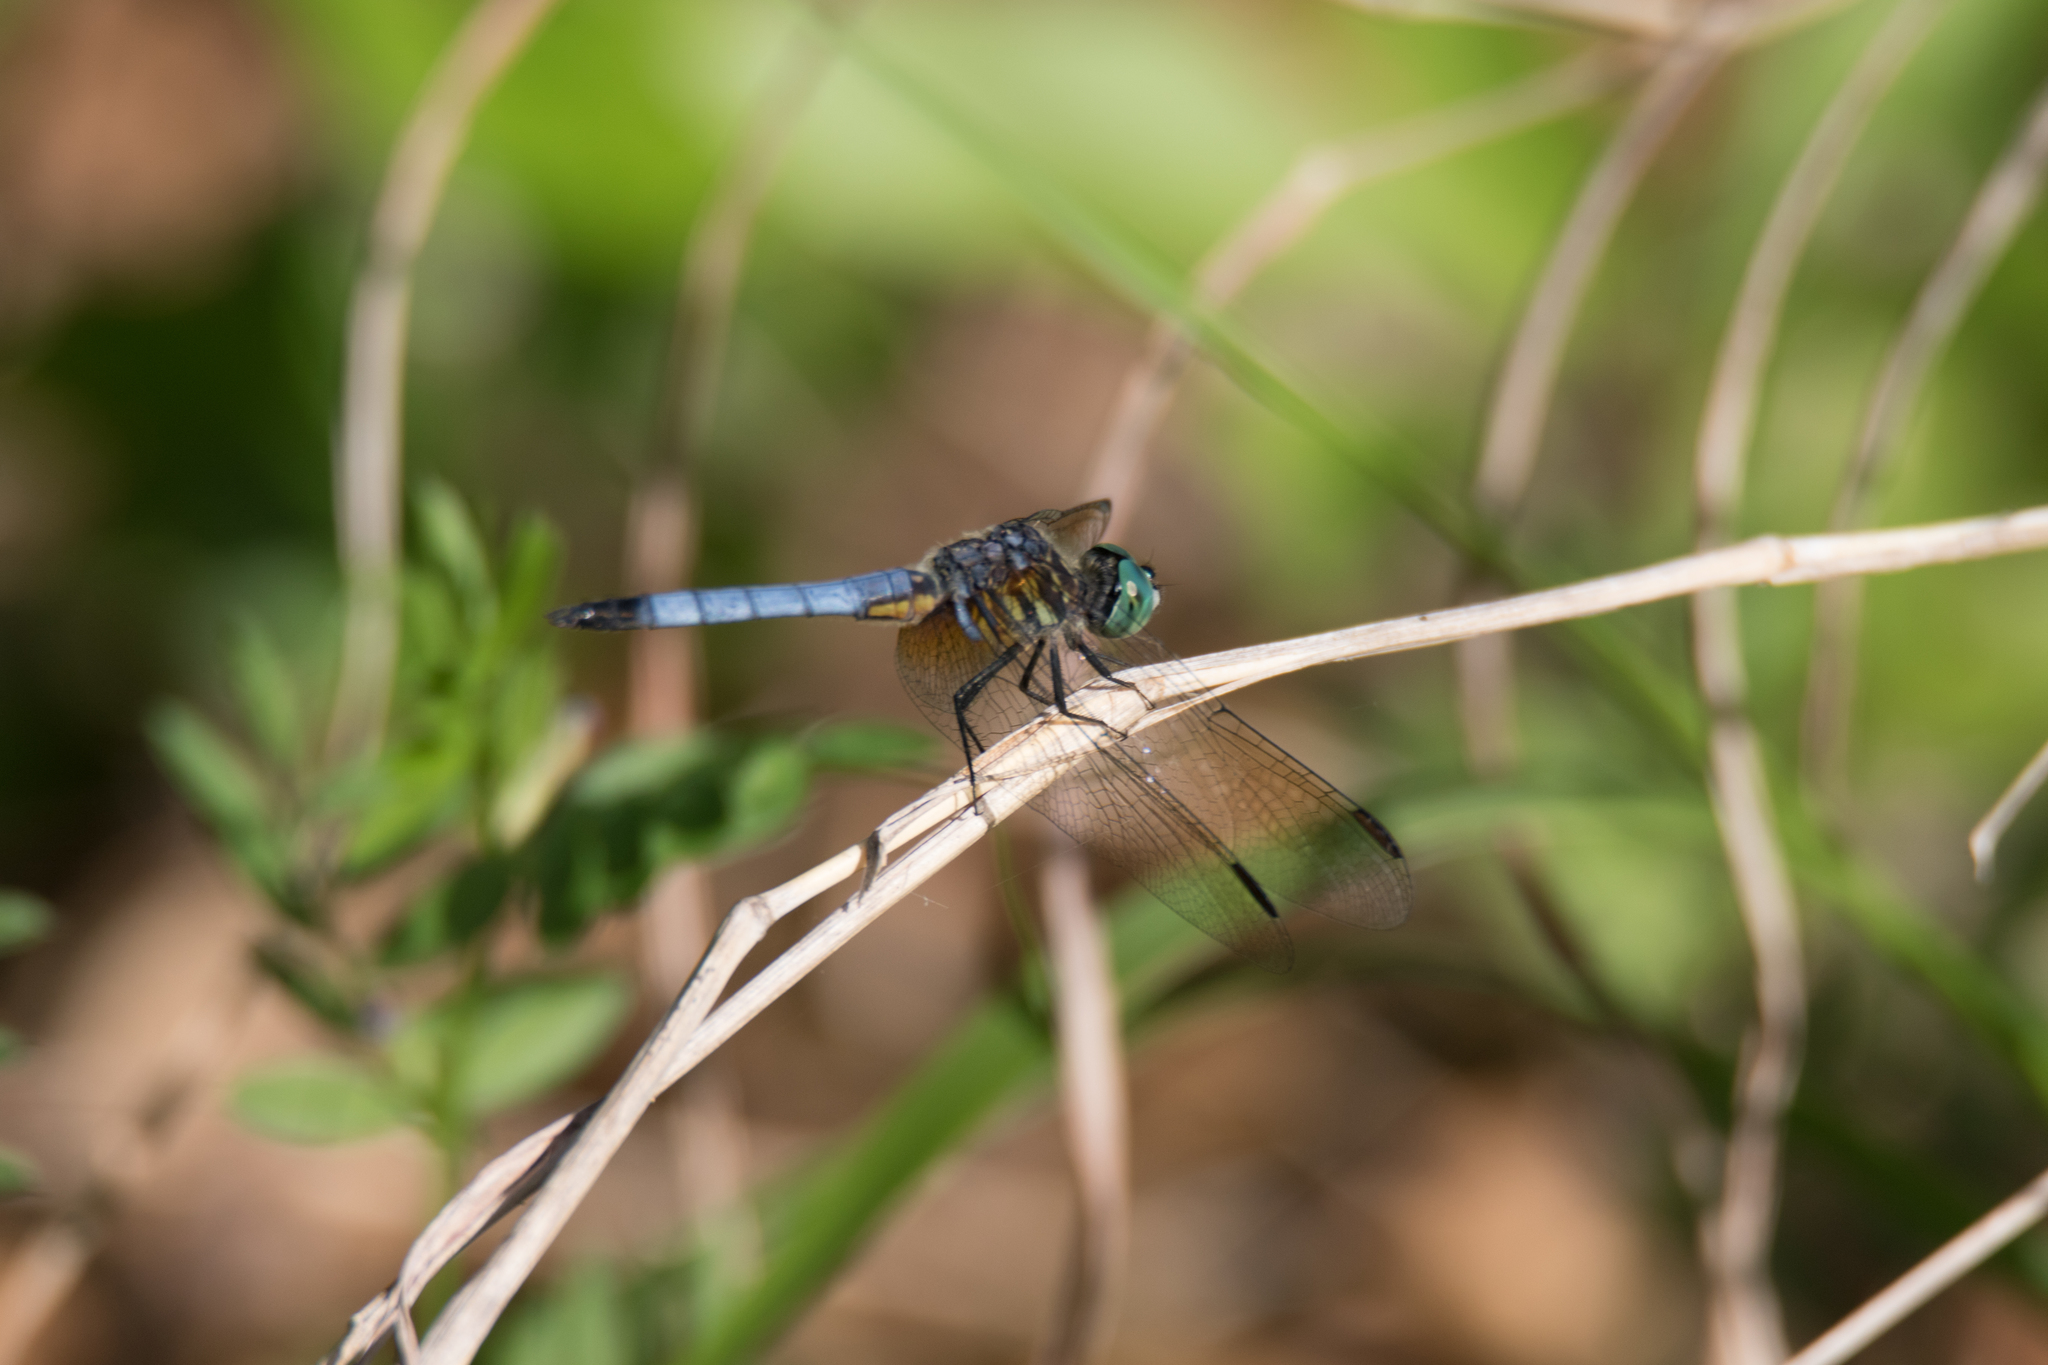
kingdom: Animalia
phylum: Arthropoda
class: Insecta
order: Odonata
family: Libellulidae
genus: Pachydiplax
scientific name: Pachydiplax longipennis
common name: Blue dasher
